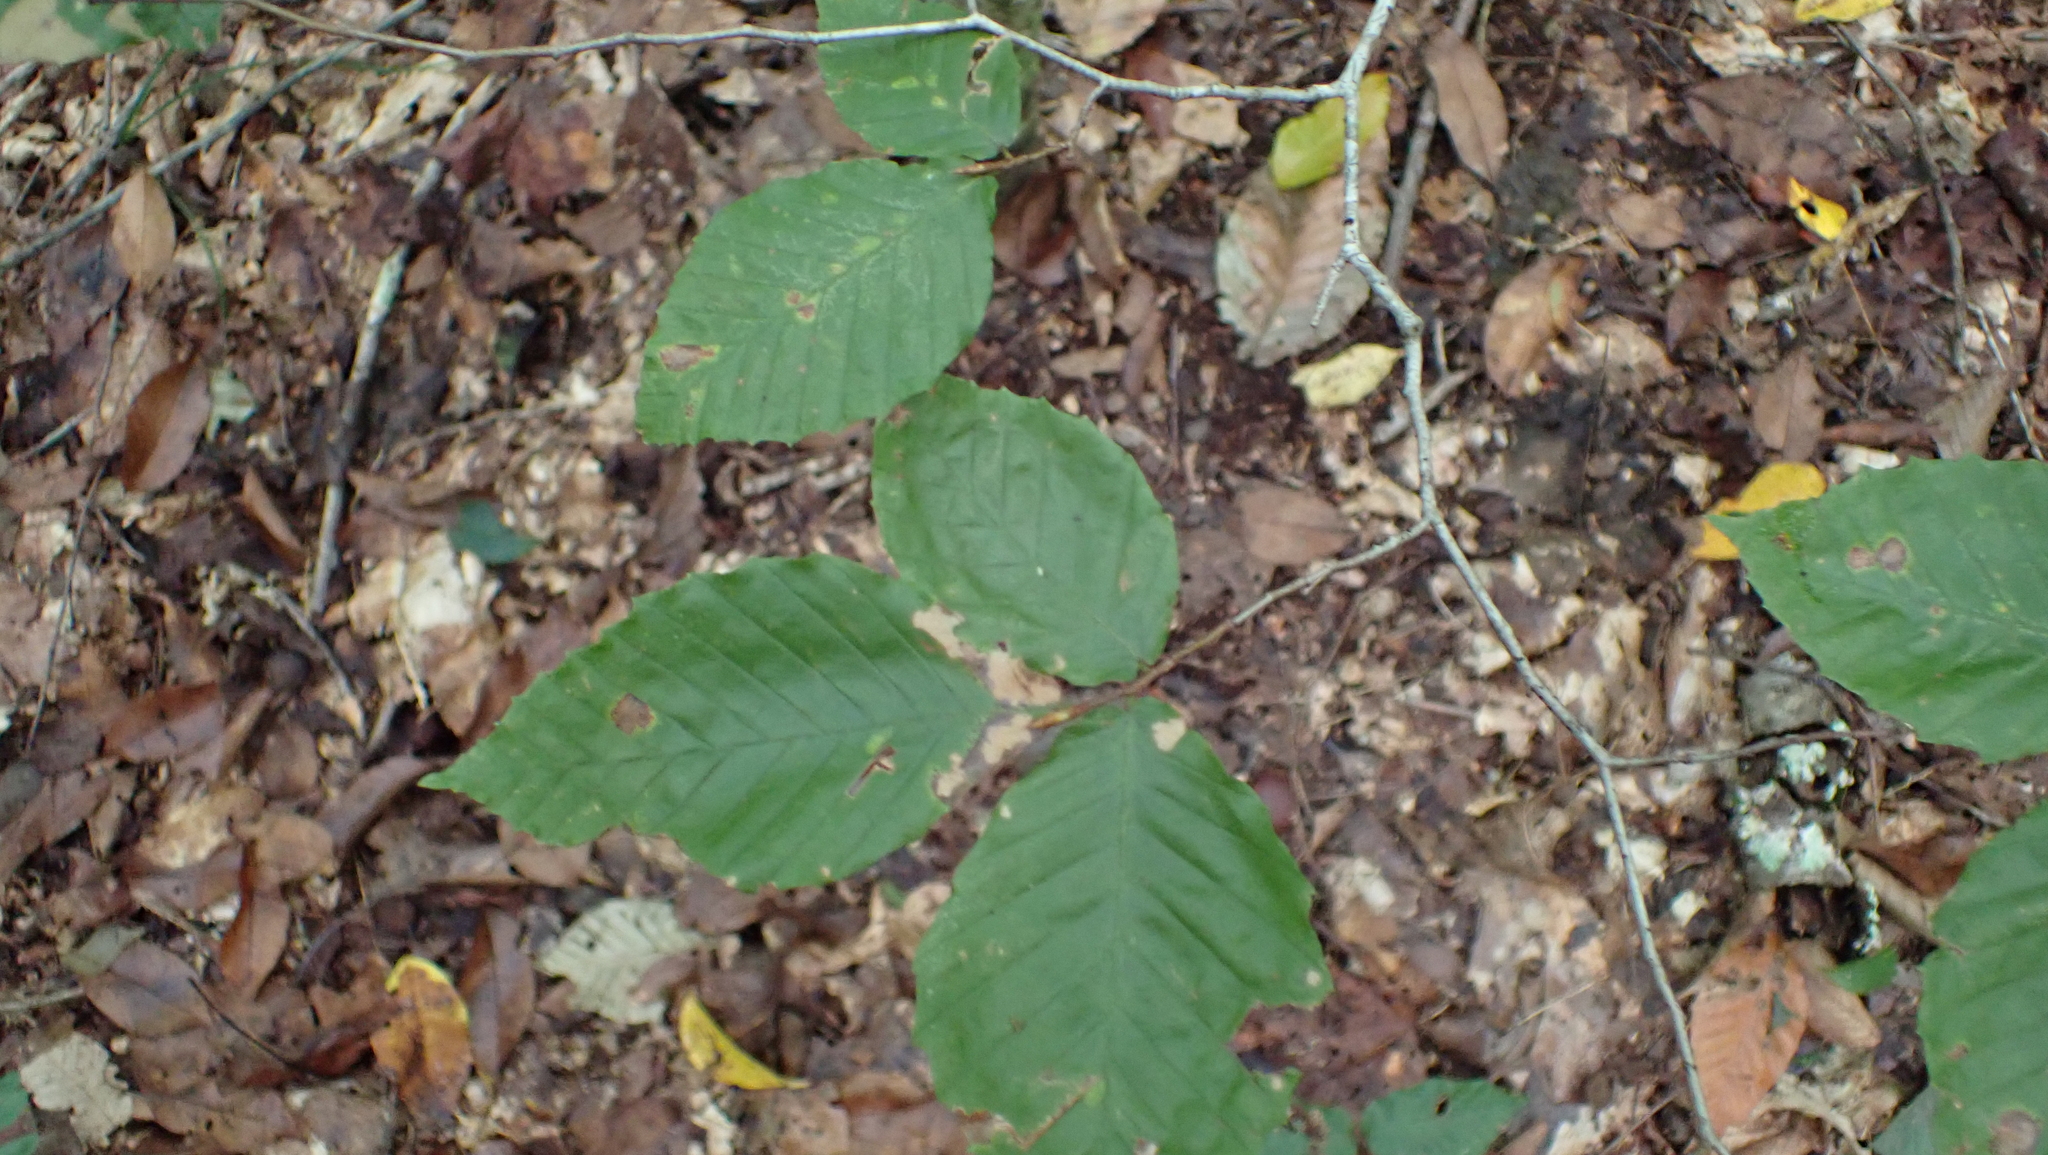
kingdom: Plantae
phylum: Tracheophyta
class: Magnoliopsida
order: Fagales
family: Fagaceae
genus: Fagus
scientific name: Fagus grandifolia
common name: American beech
